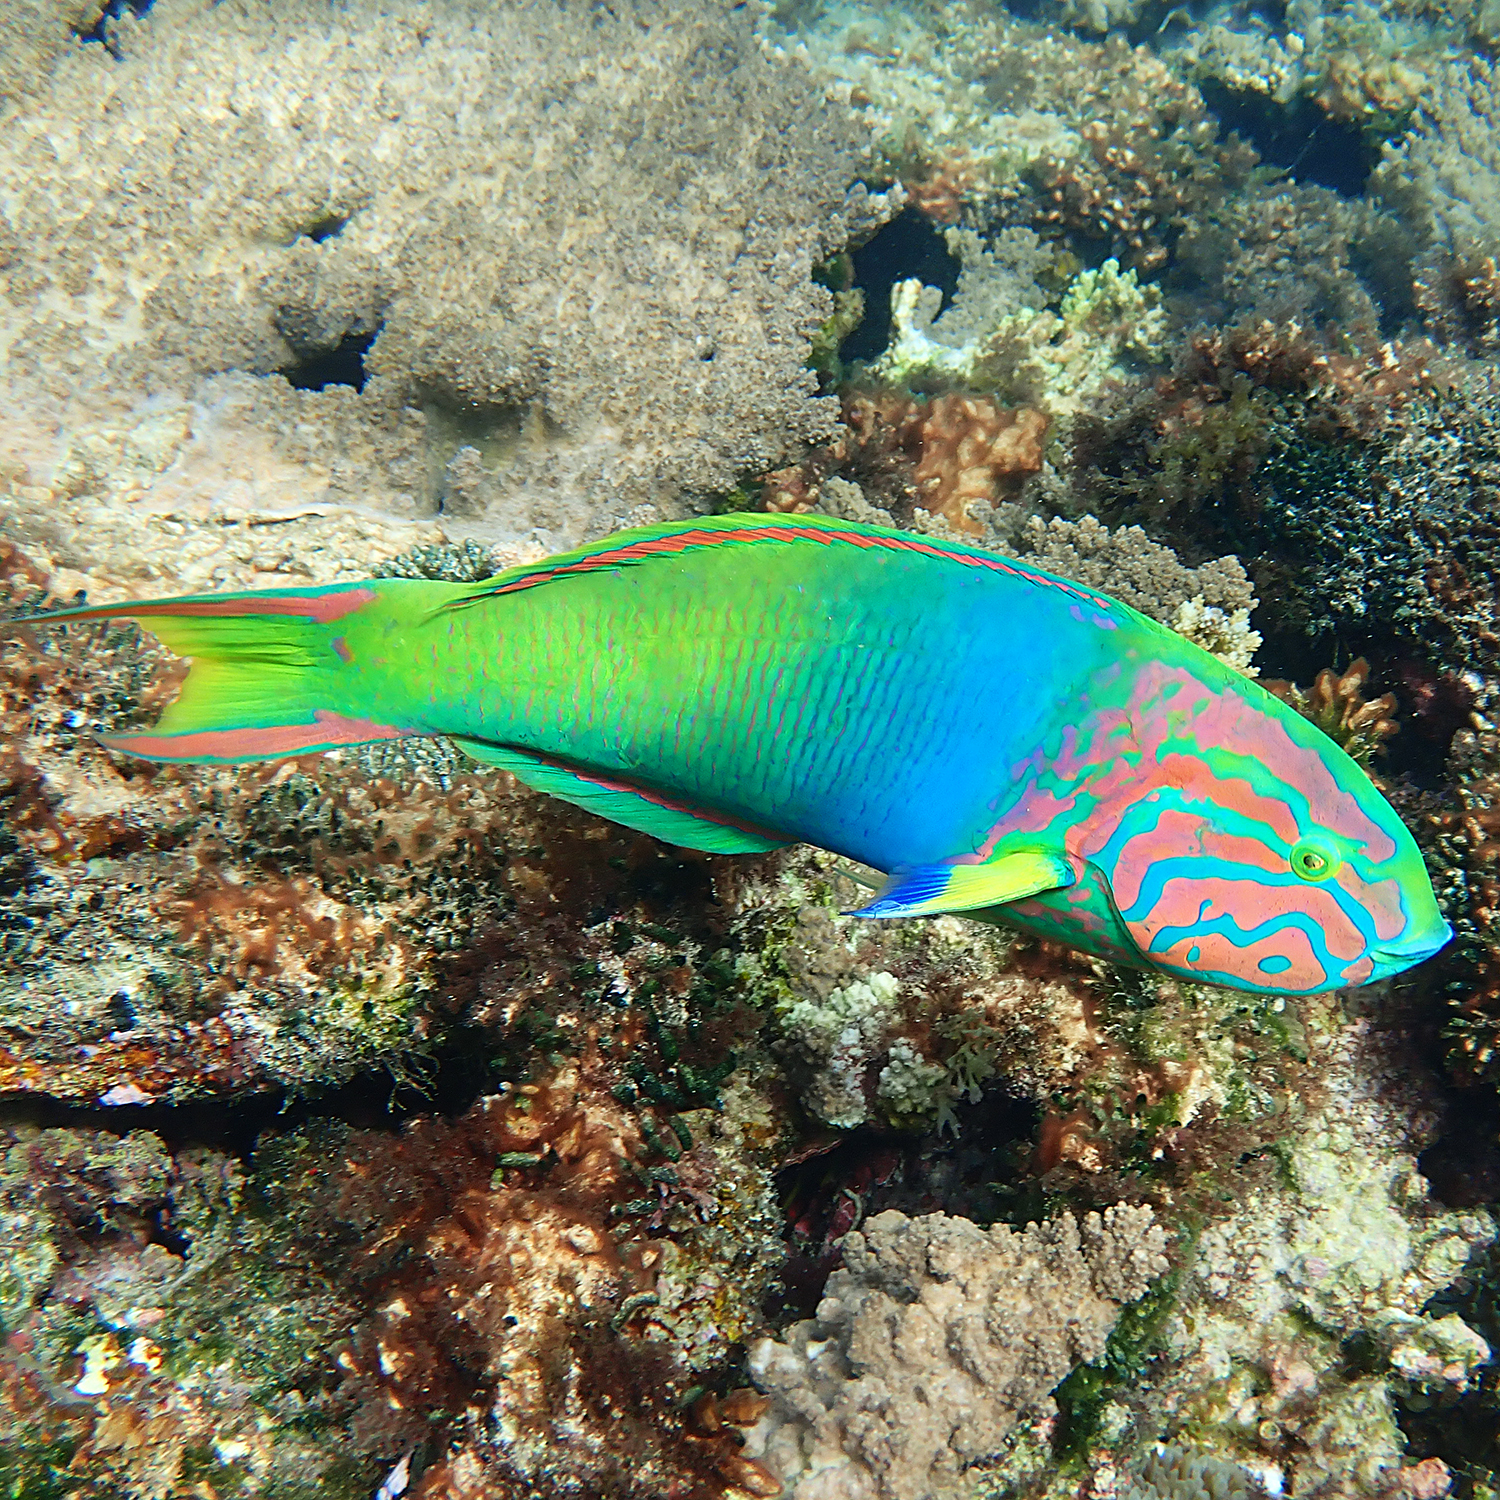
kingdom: Animalia
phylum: Chordata
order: Perciformes
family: Labridae
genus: Thalassoma
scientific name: Thalassoma lutescens
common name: Green moon wrasse
